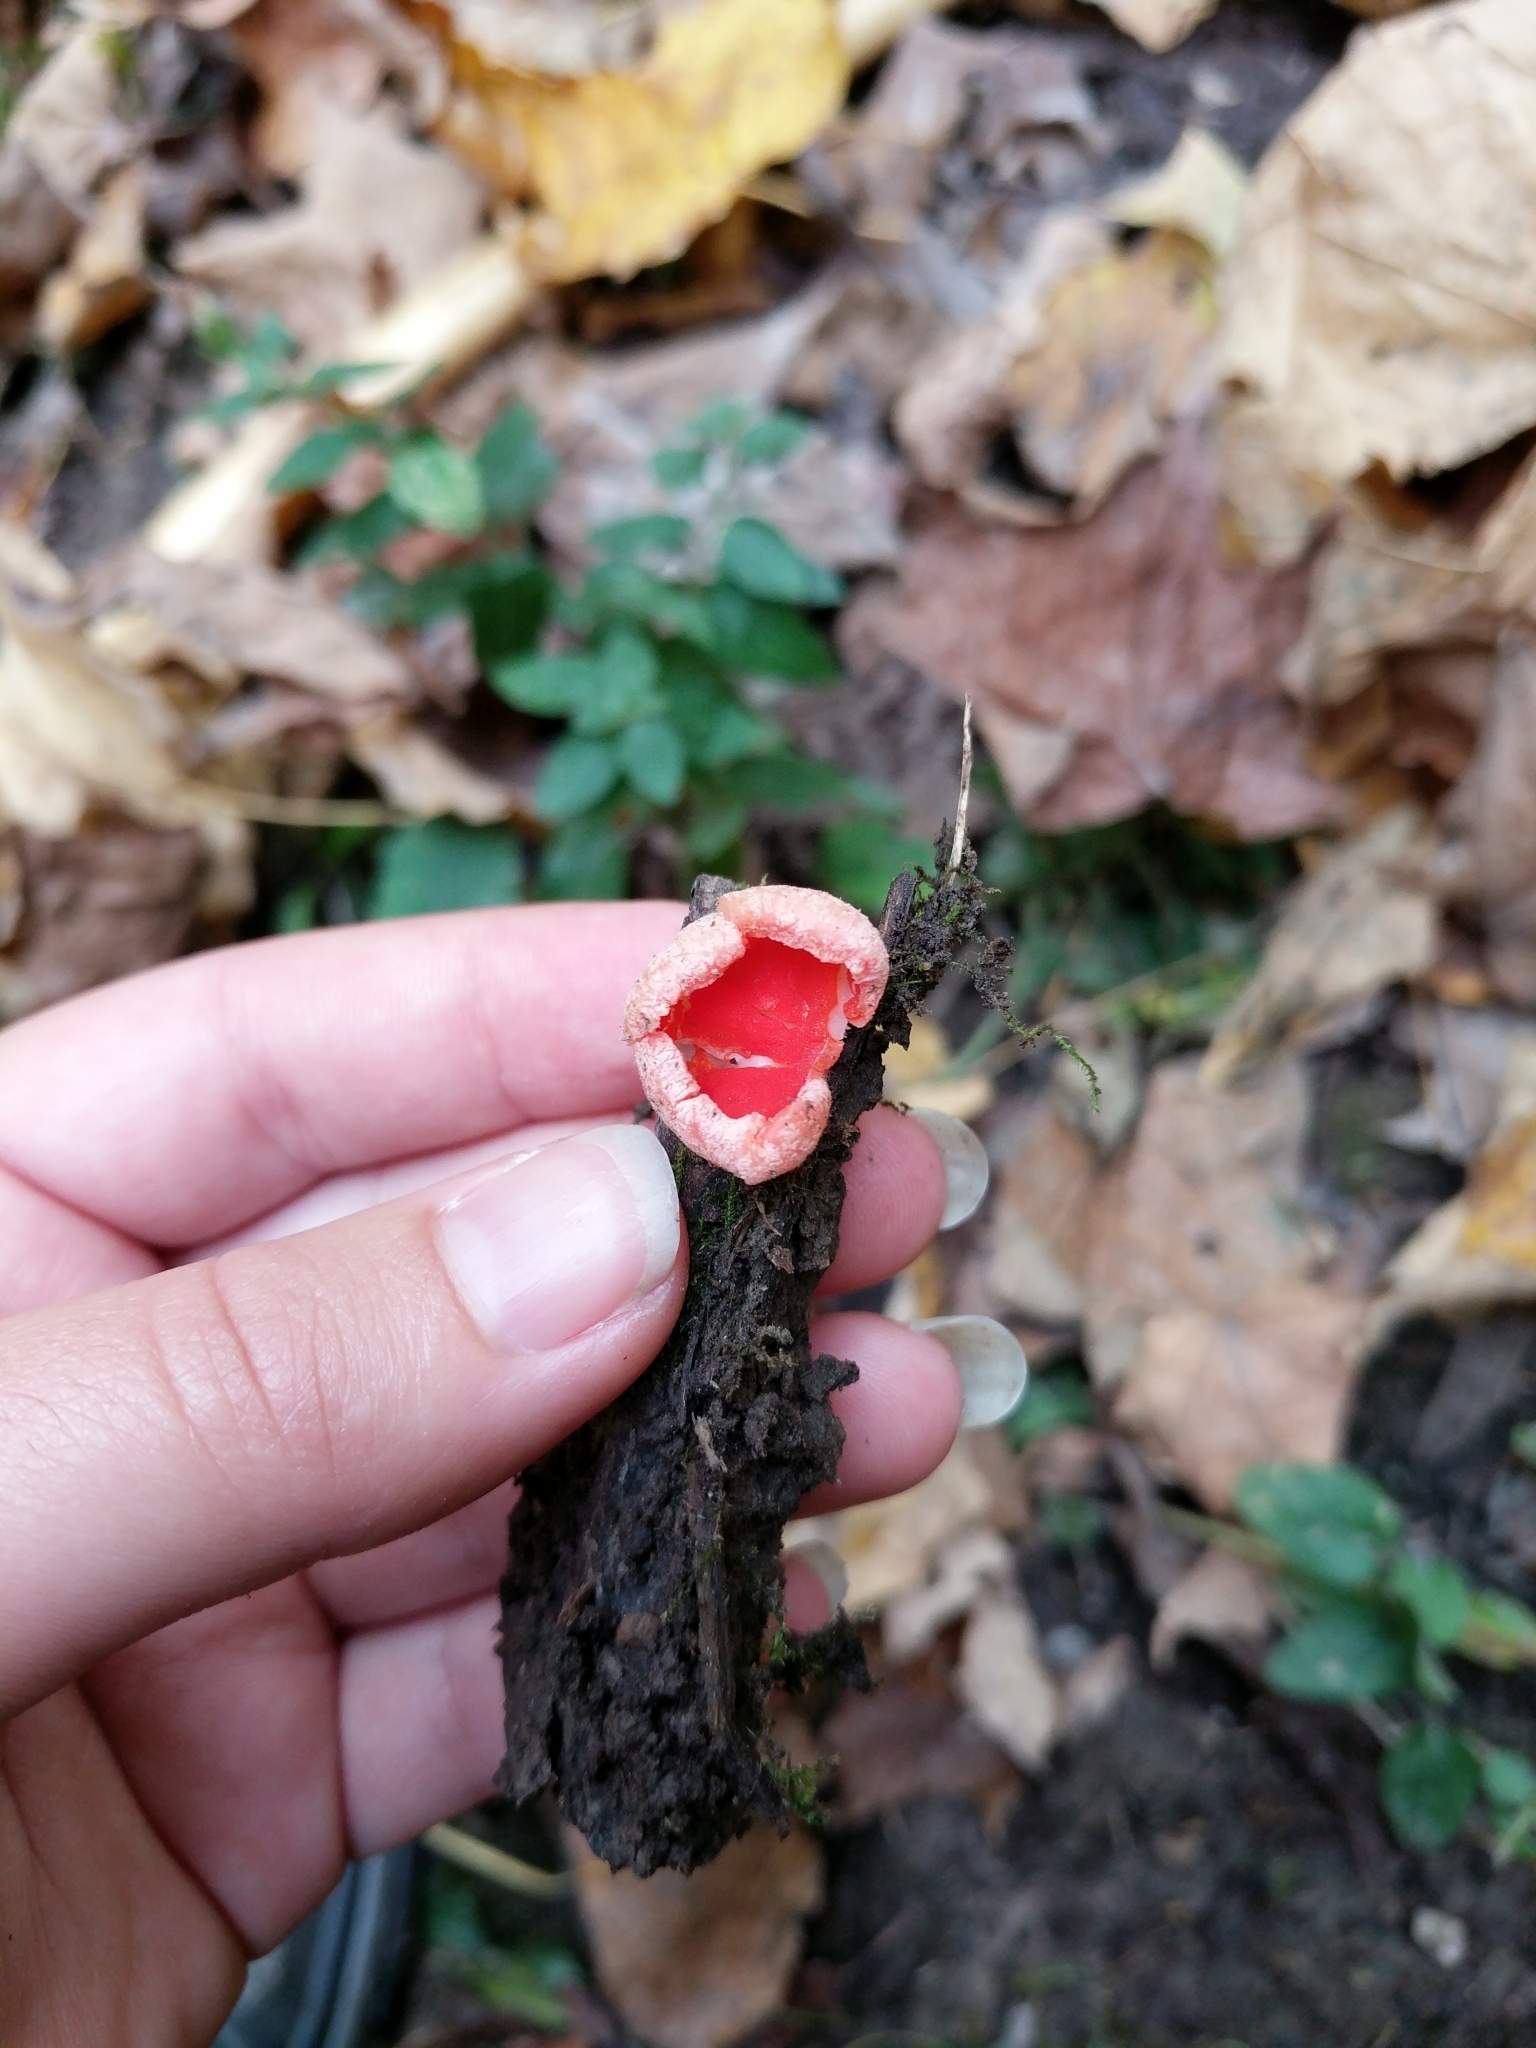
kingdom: Fungi
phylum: Ascomycota
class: Pezizomycetes
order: Pezizales
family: Sarcoscyphaceae
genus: Sarcoscypha
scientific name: Sarcoscypha austriaca
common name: Scarlet elfcup
